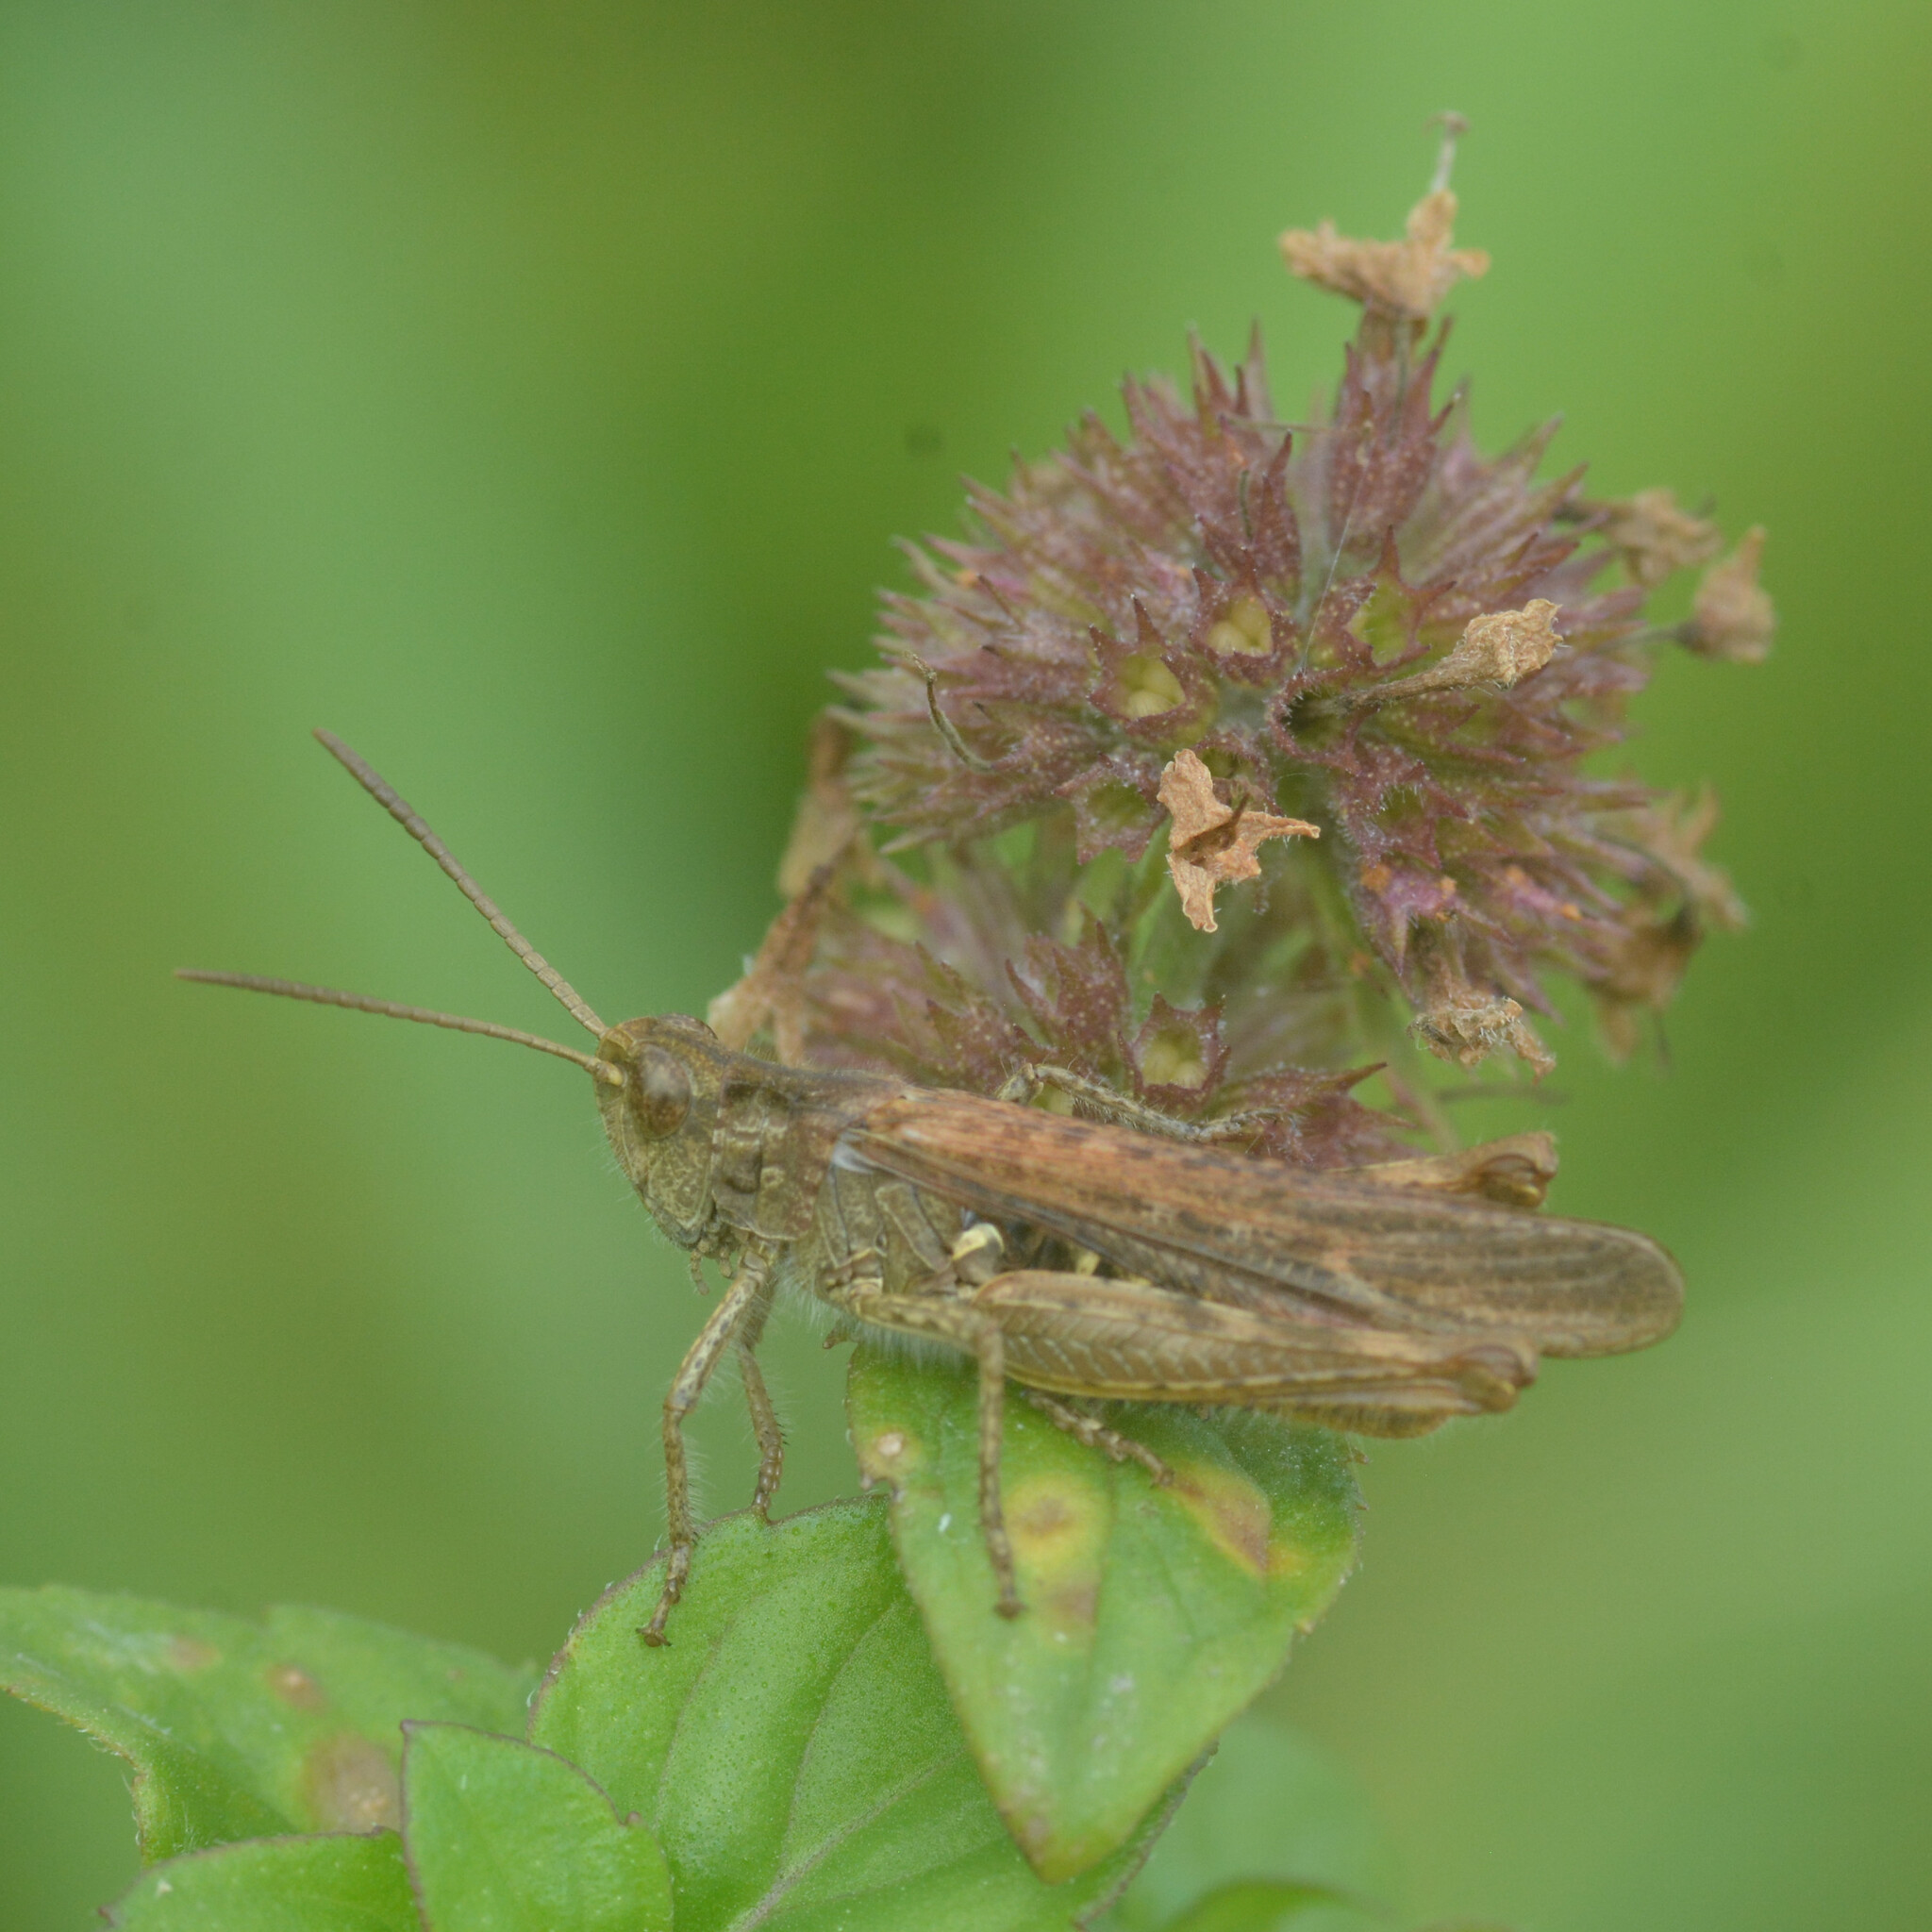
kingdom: Animalia
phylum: Arthropoda
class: Insecta
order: Orthoptera
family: Acrididae
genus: Chorthippus
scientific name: Chorthippus brunneus
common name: Field grasshopper
